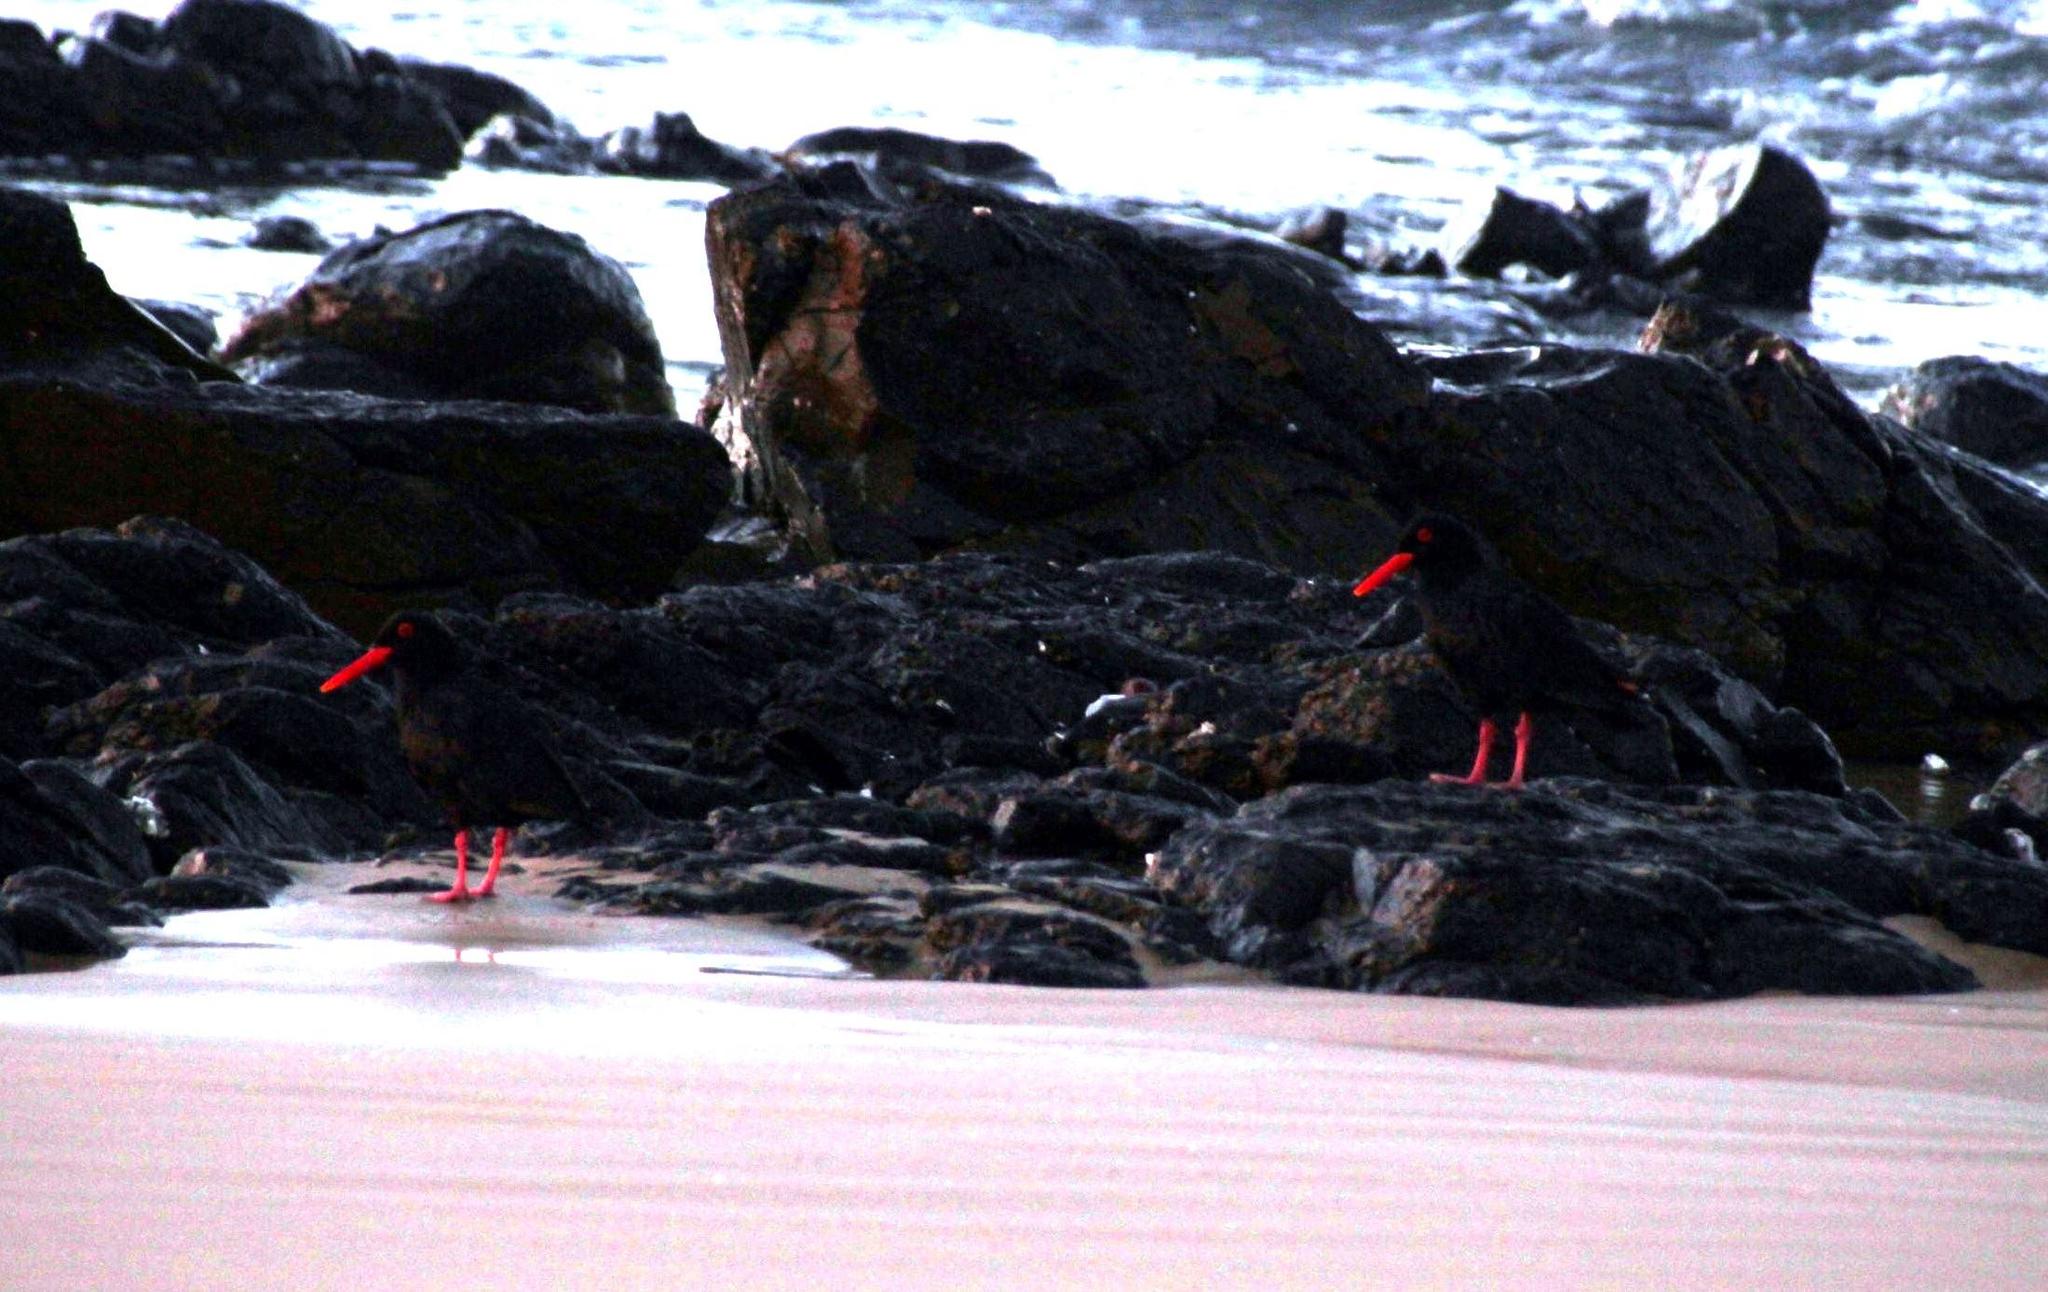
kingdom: Animalia
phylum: Chordata
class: Aves
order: Charadriiformes
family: Haematopodidae
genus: Haematopus
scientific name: Haematopus moquini
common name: African oystercatcher
